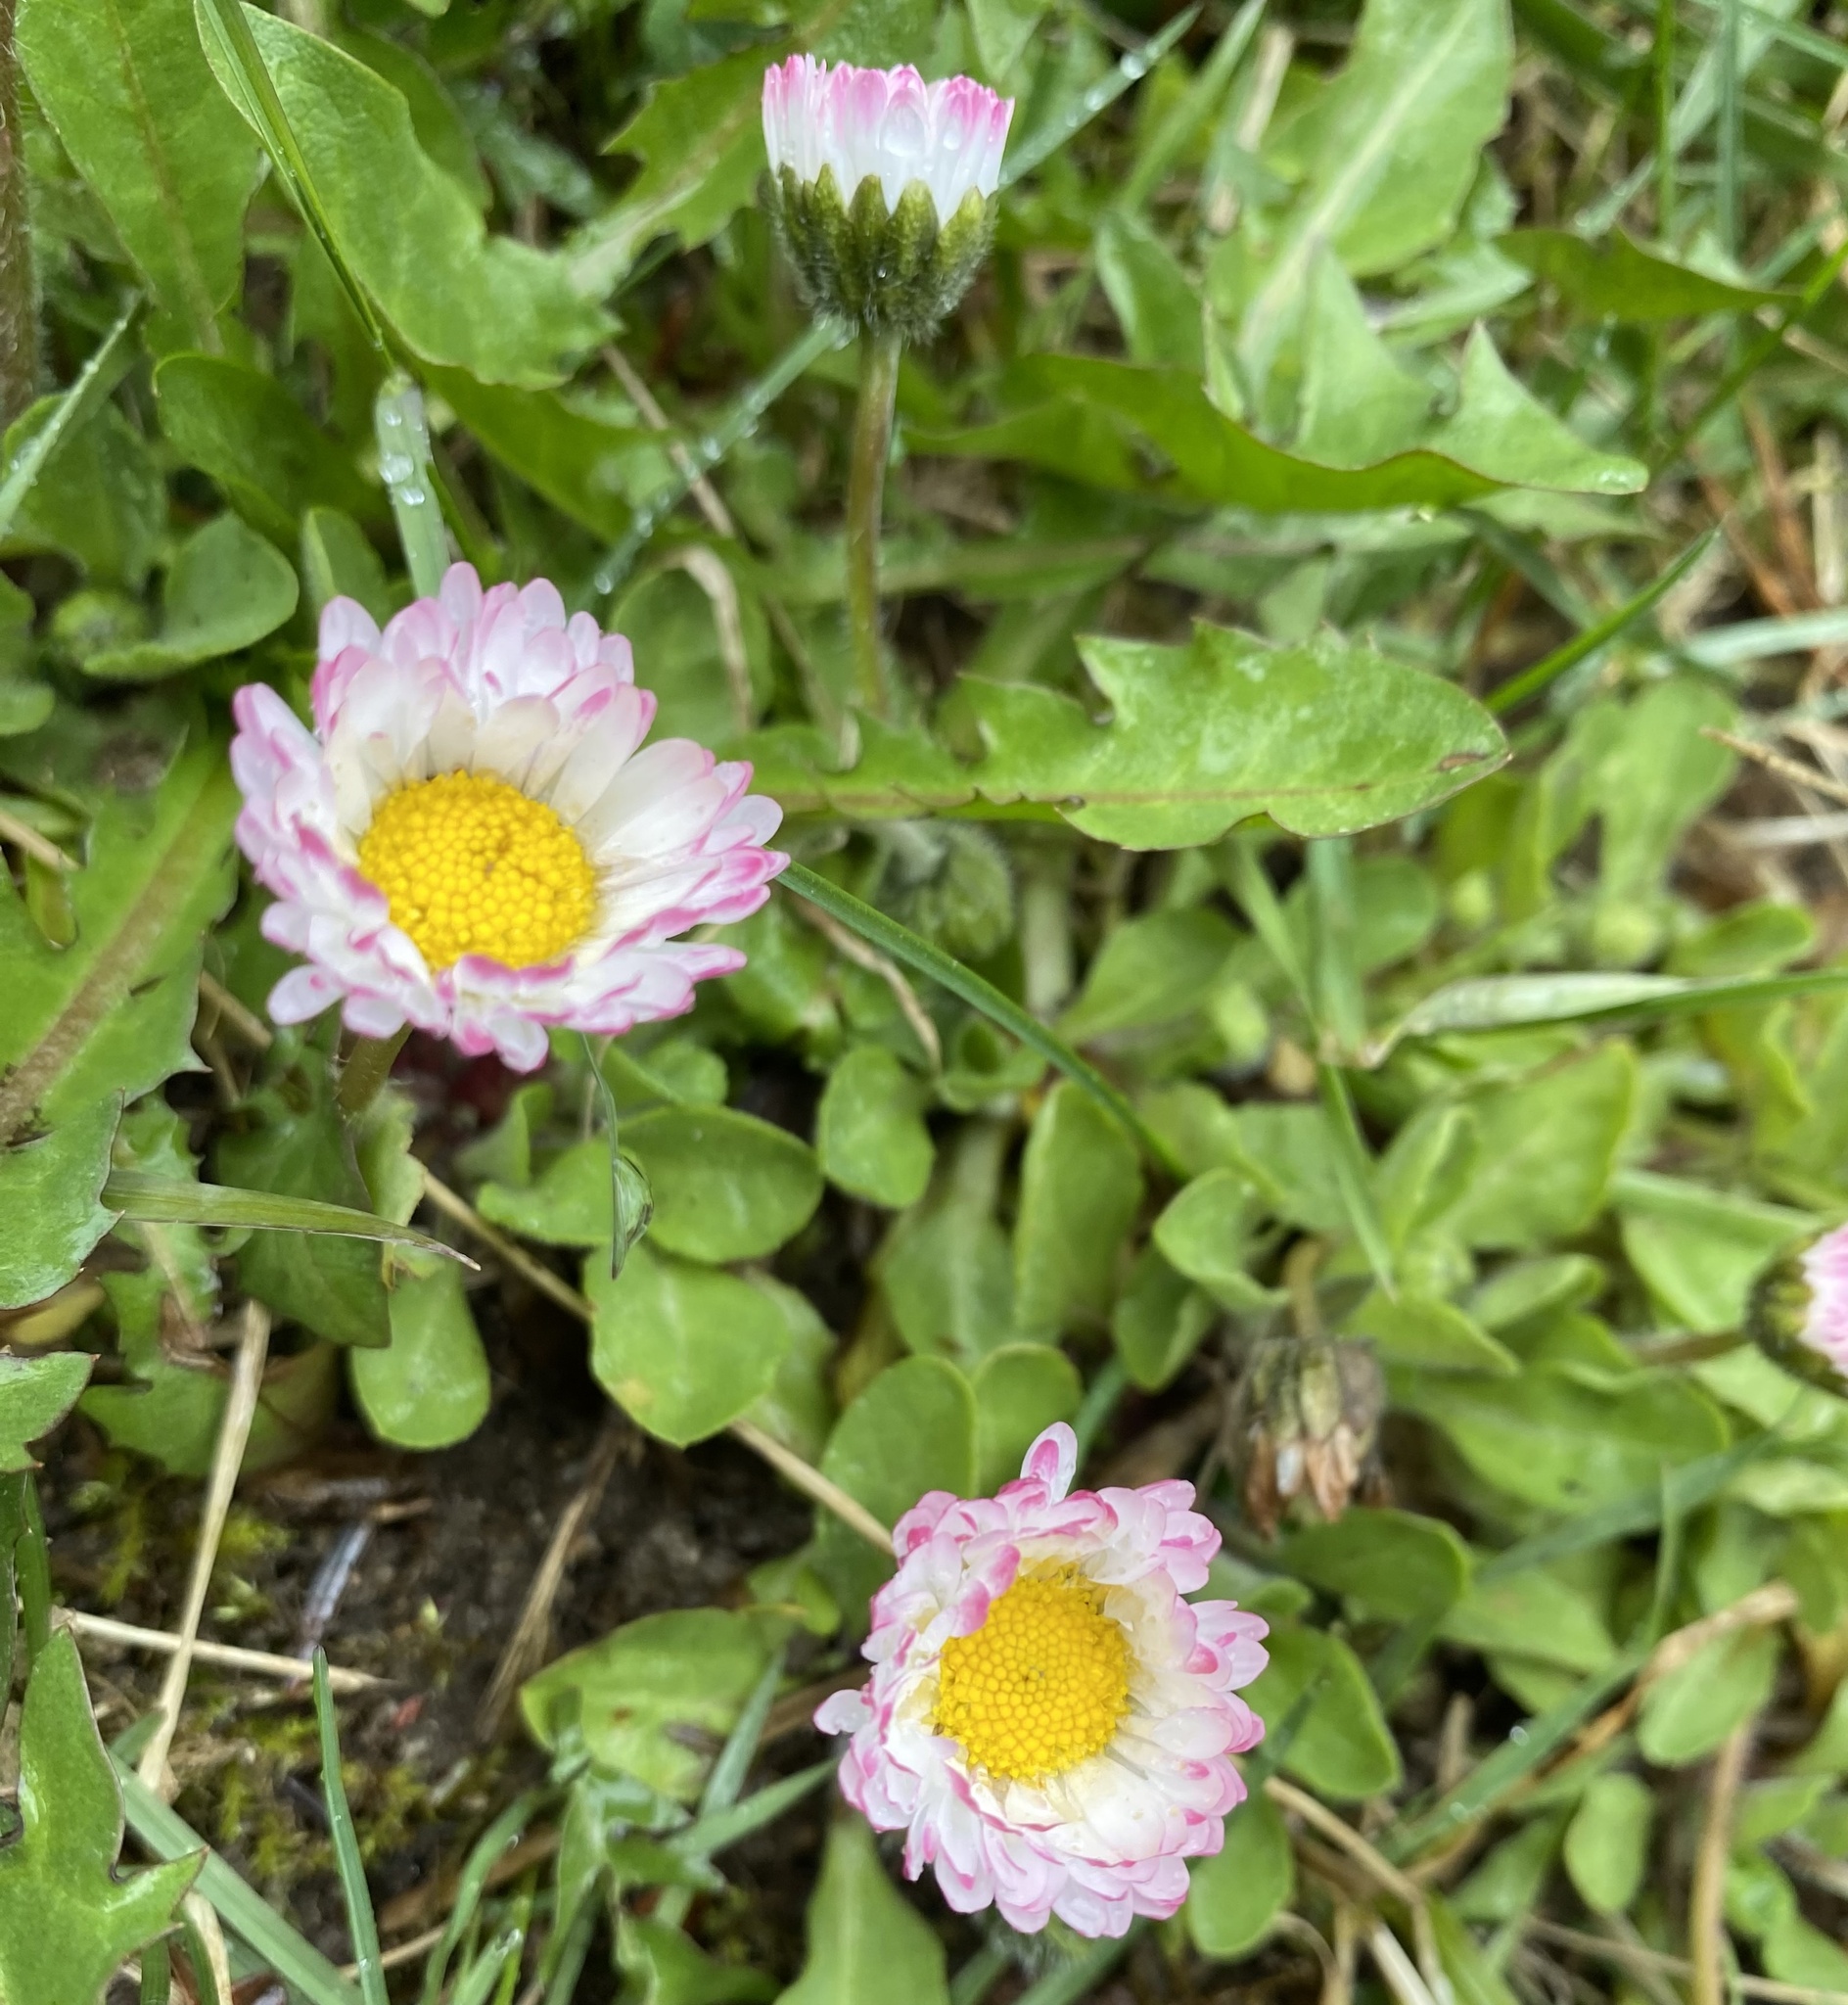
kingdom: Plantae
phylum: Tracheophyta
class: Magnoliopsida
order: Asterales
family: Asteraceae
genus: Bellis
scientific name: Bellis perennis
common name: Lawndaisy
